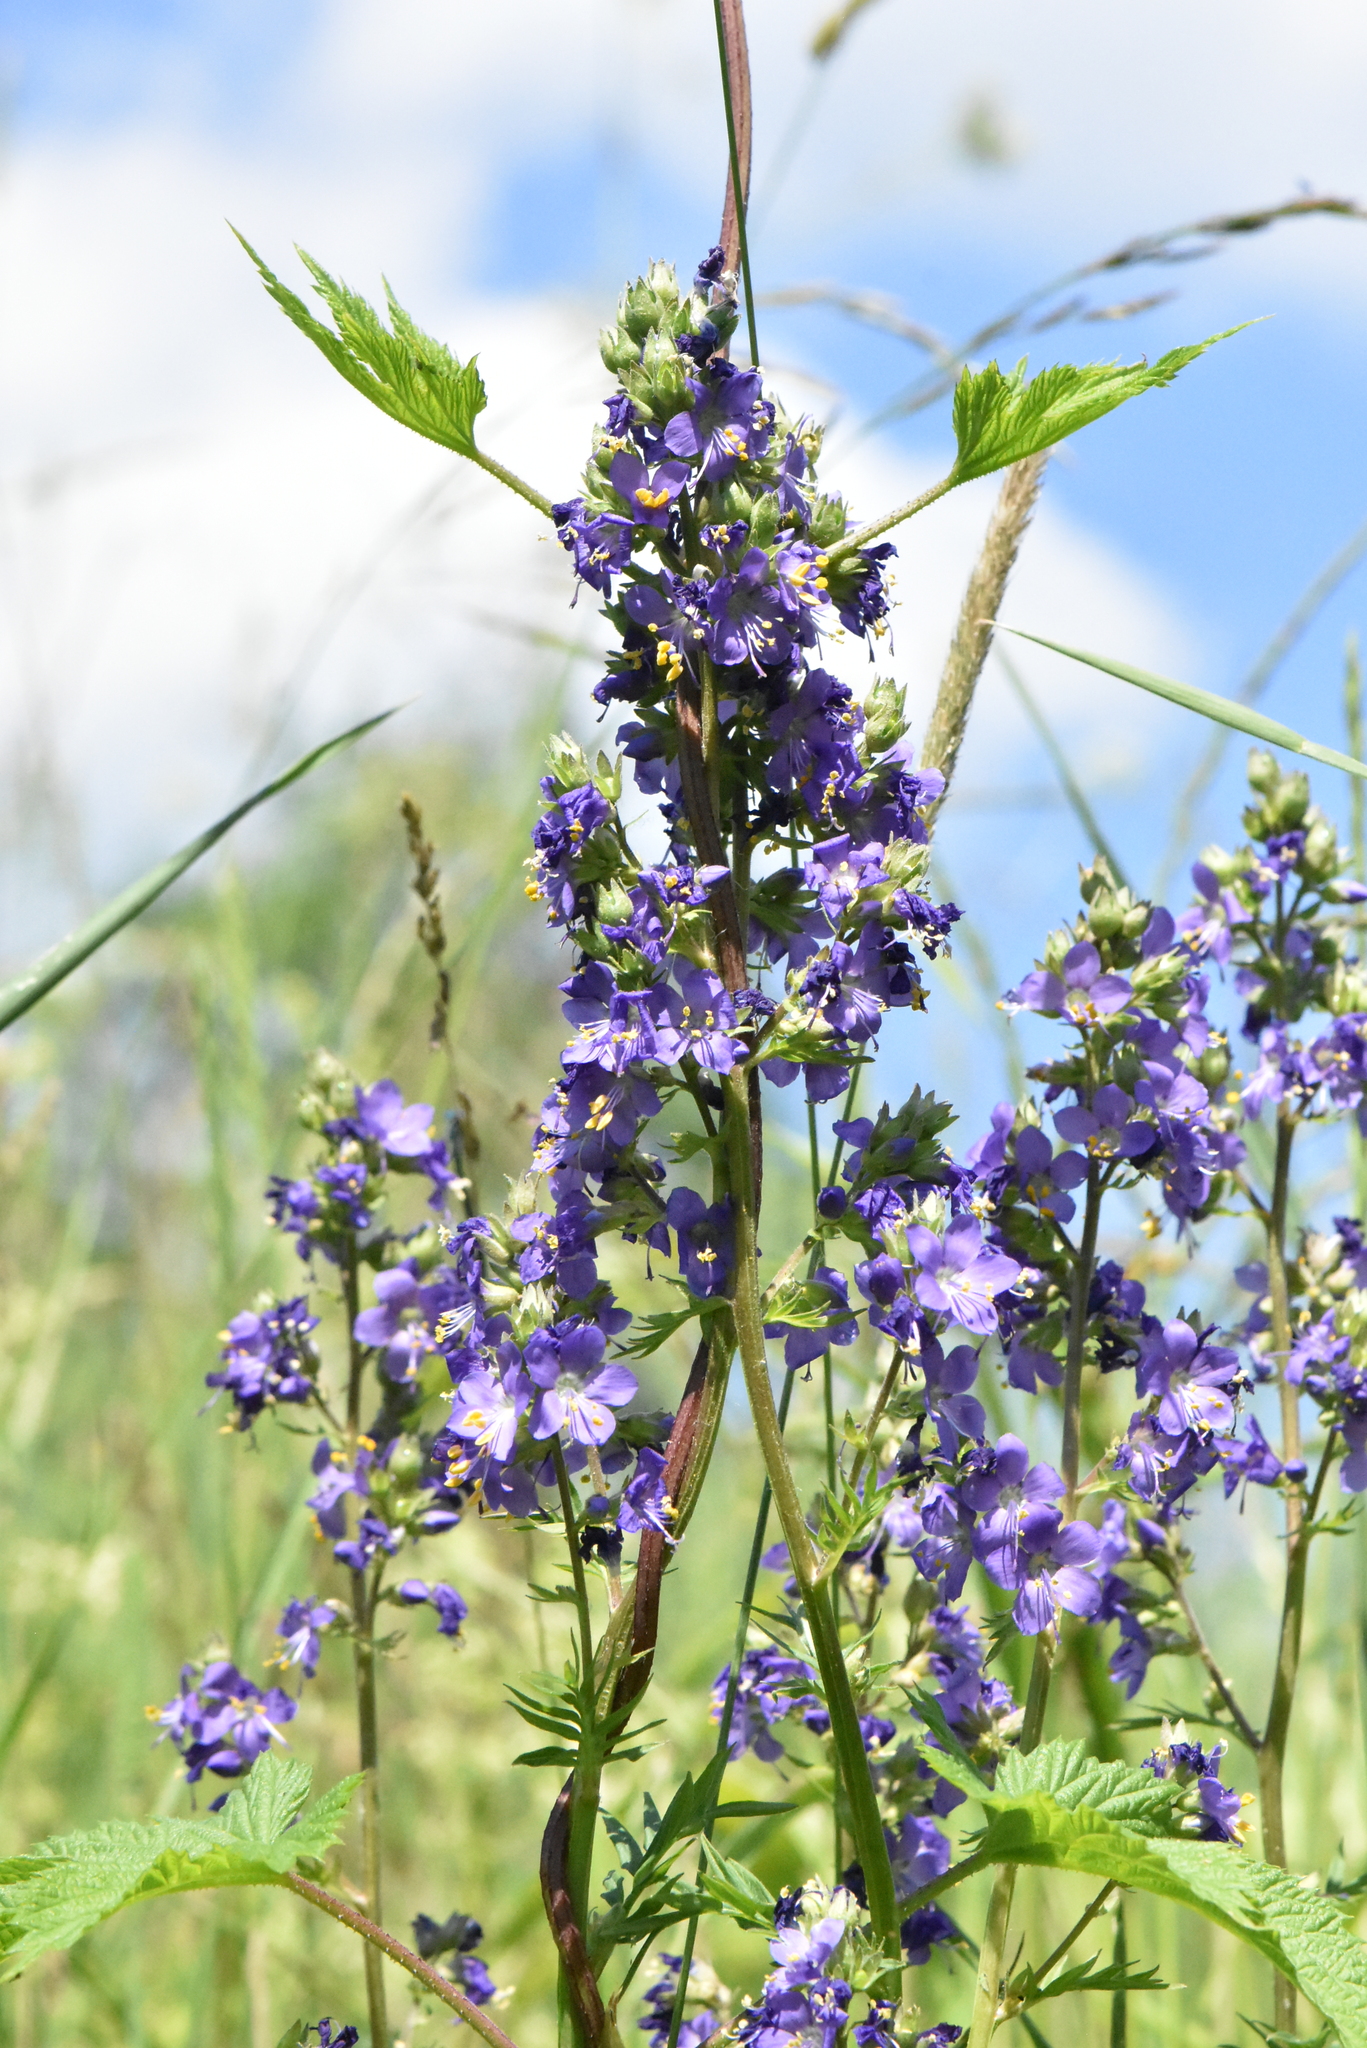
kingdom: Plantae
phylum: Tracheophyta
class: Magnoliopsida
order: Ericales
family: Polemoniaceae
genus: Polemonium
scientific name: Polemonium caeruleum
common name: Jacob's-ladder
